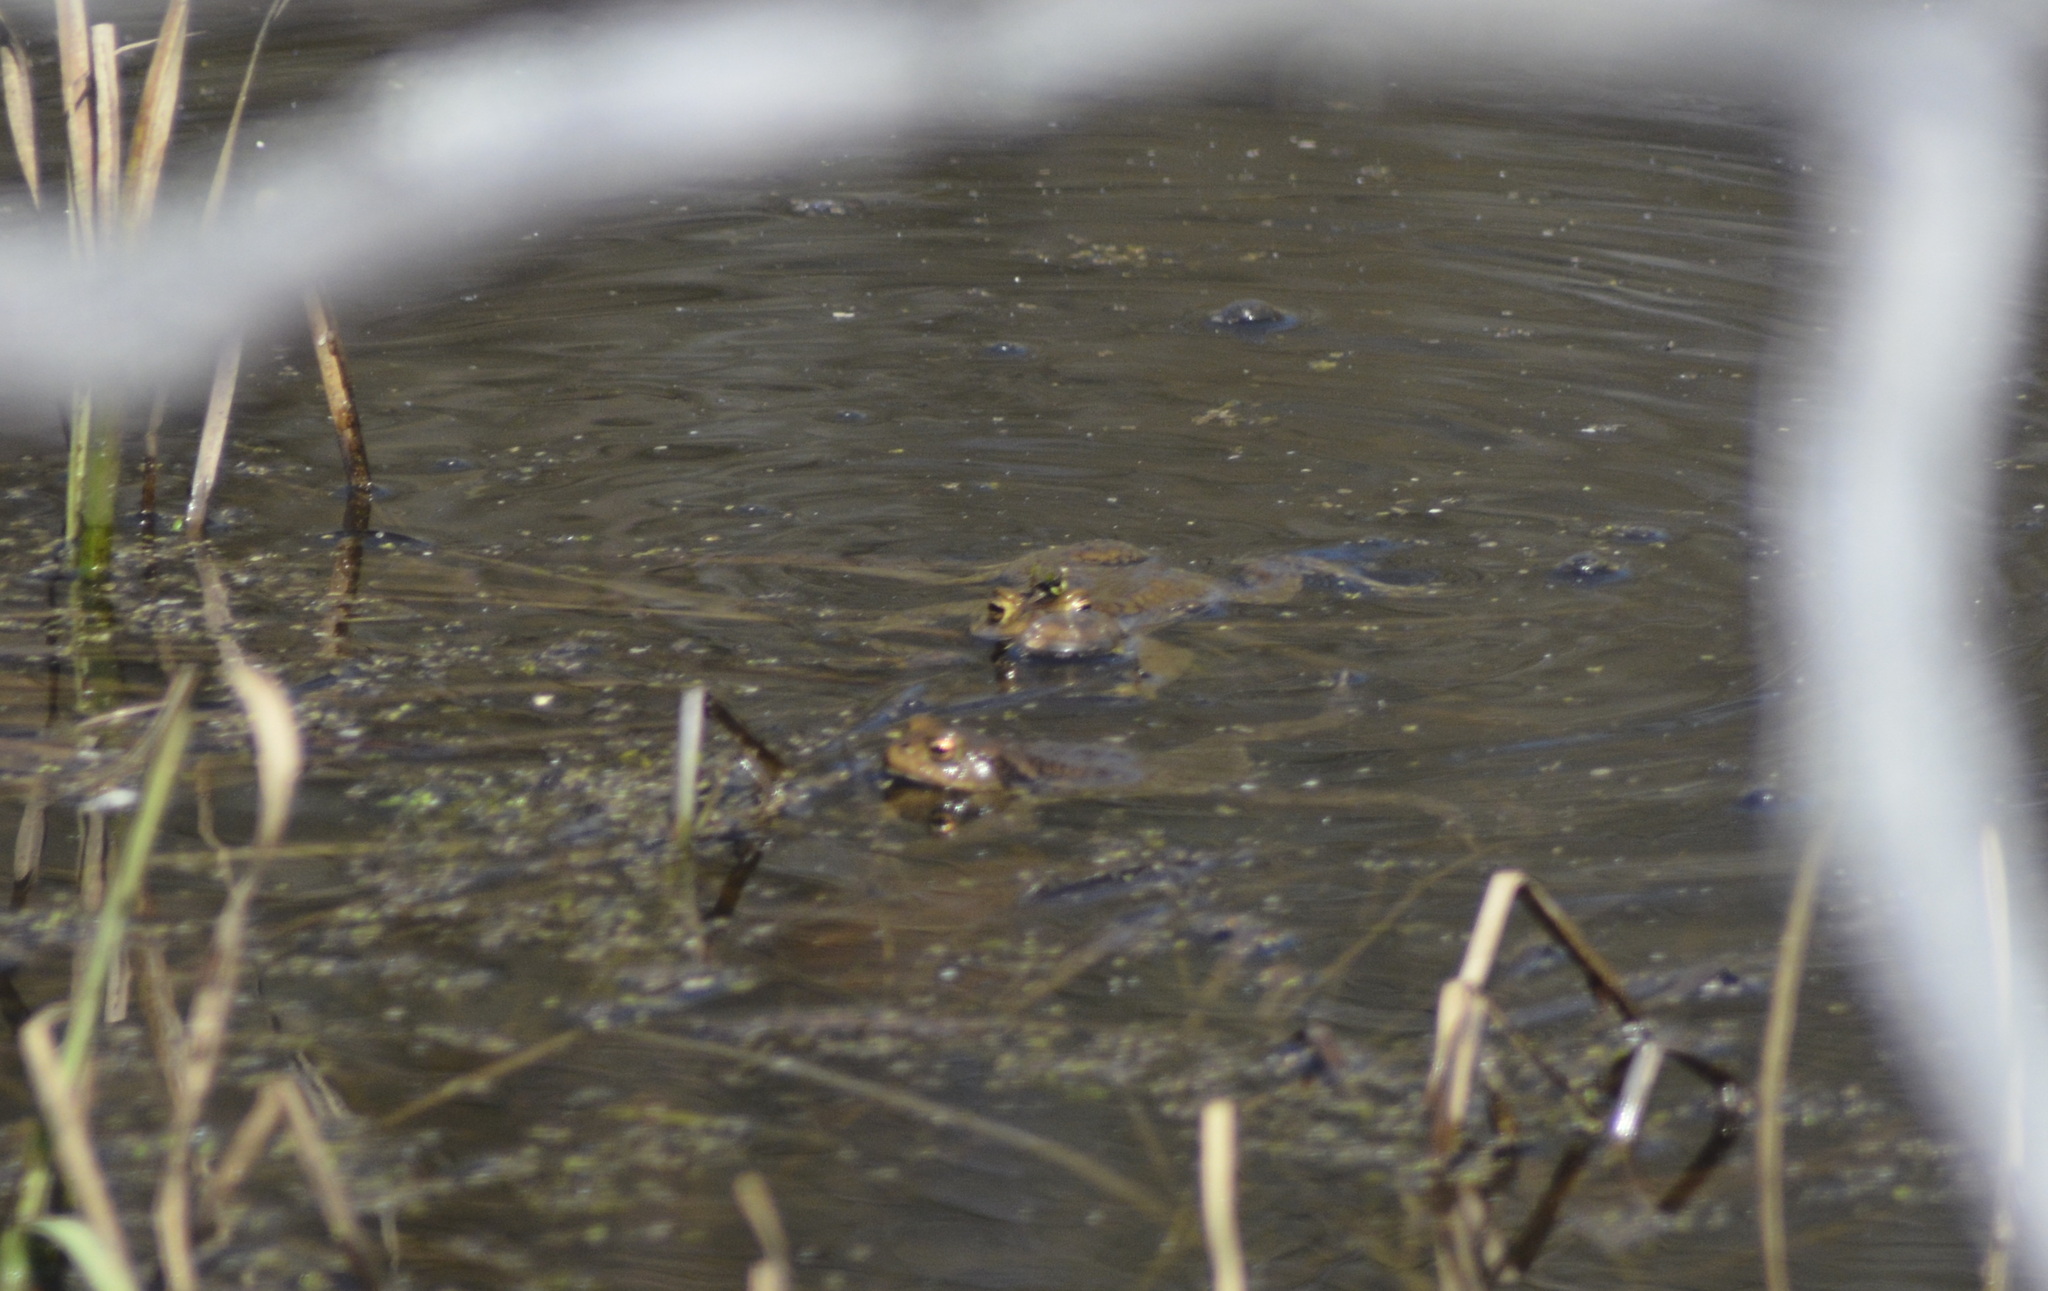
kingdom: Animalia
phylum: Chordata
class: Amphibia
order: Anura
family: Bufonidae
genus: Bufo
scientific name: Bufo bufo
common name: Common toad
